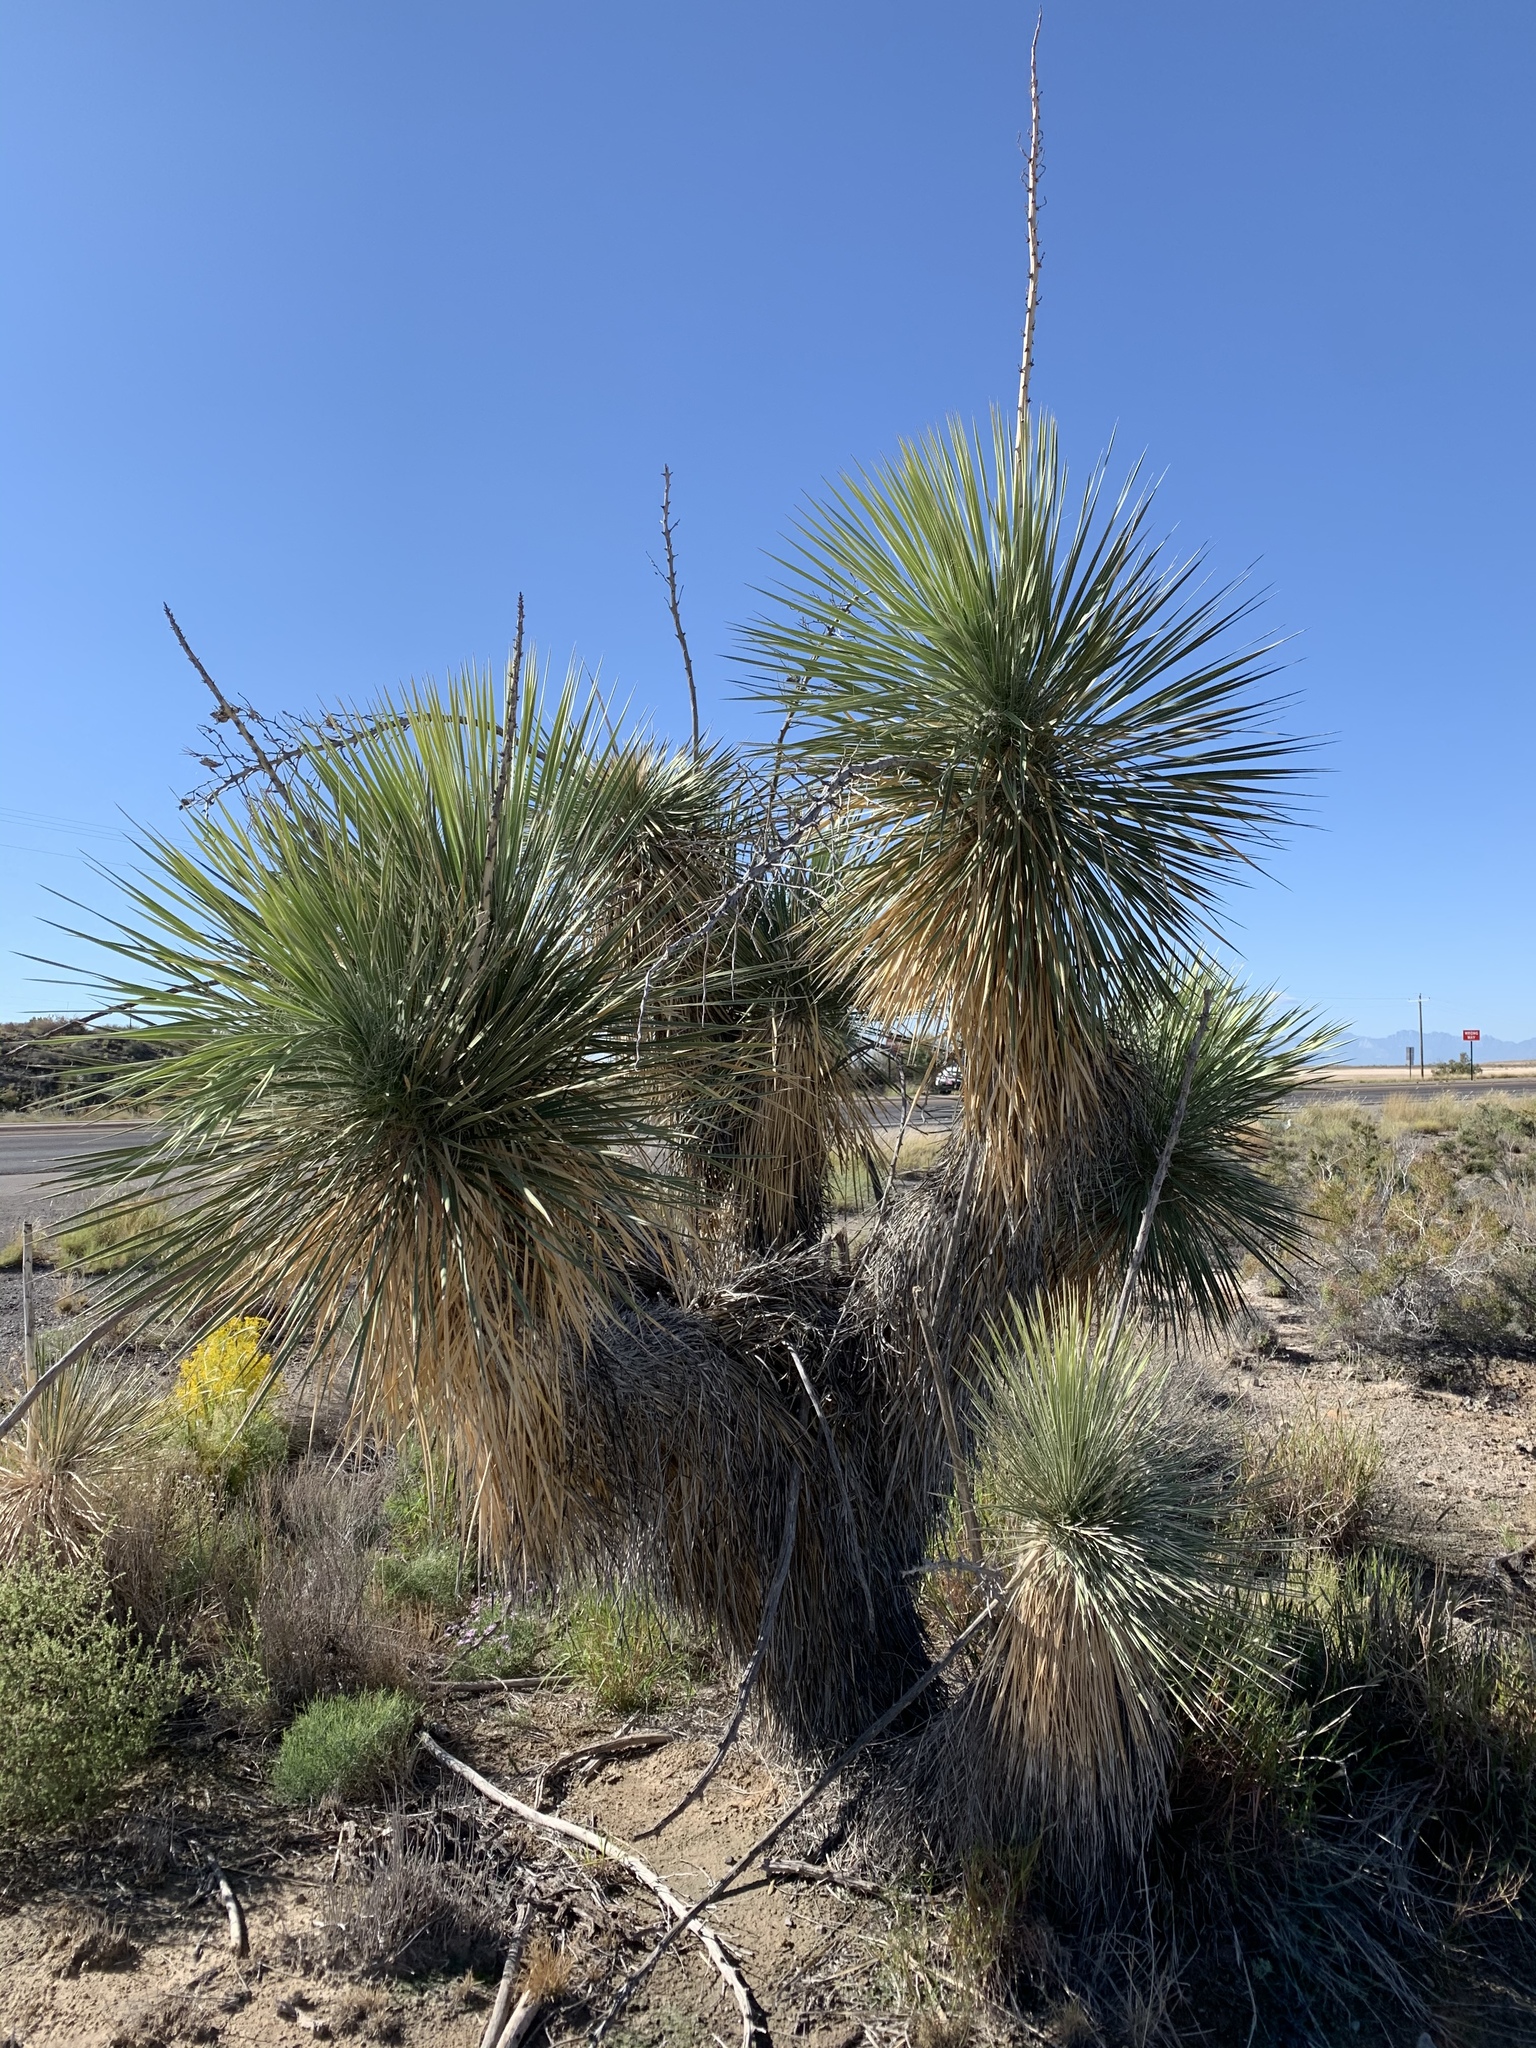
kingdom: Plantae
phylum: Tracheophyta
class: Liliopsida
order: Asparagales
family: Asparagaceae
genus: Yucca
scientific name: Yucca elata
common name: Palmella
